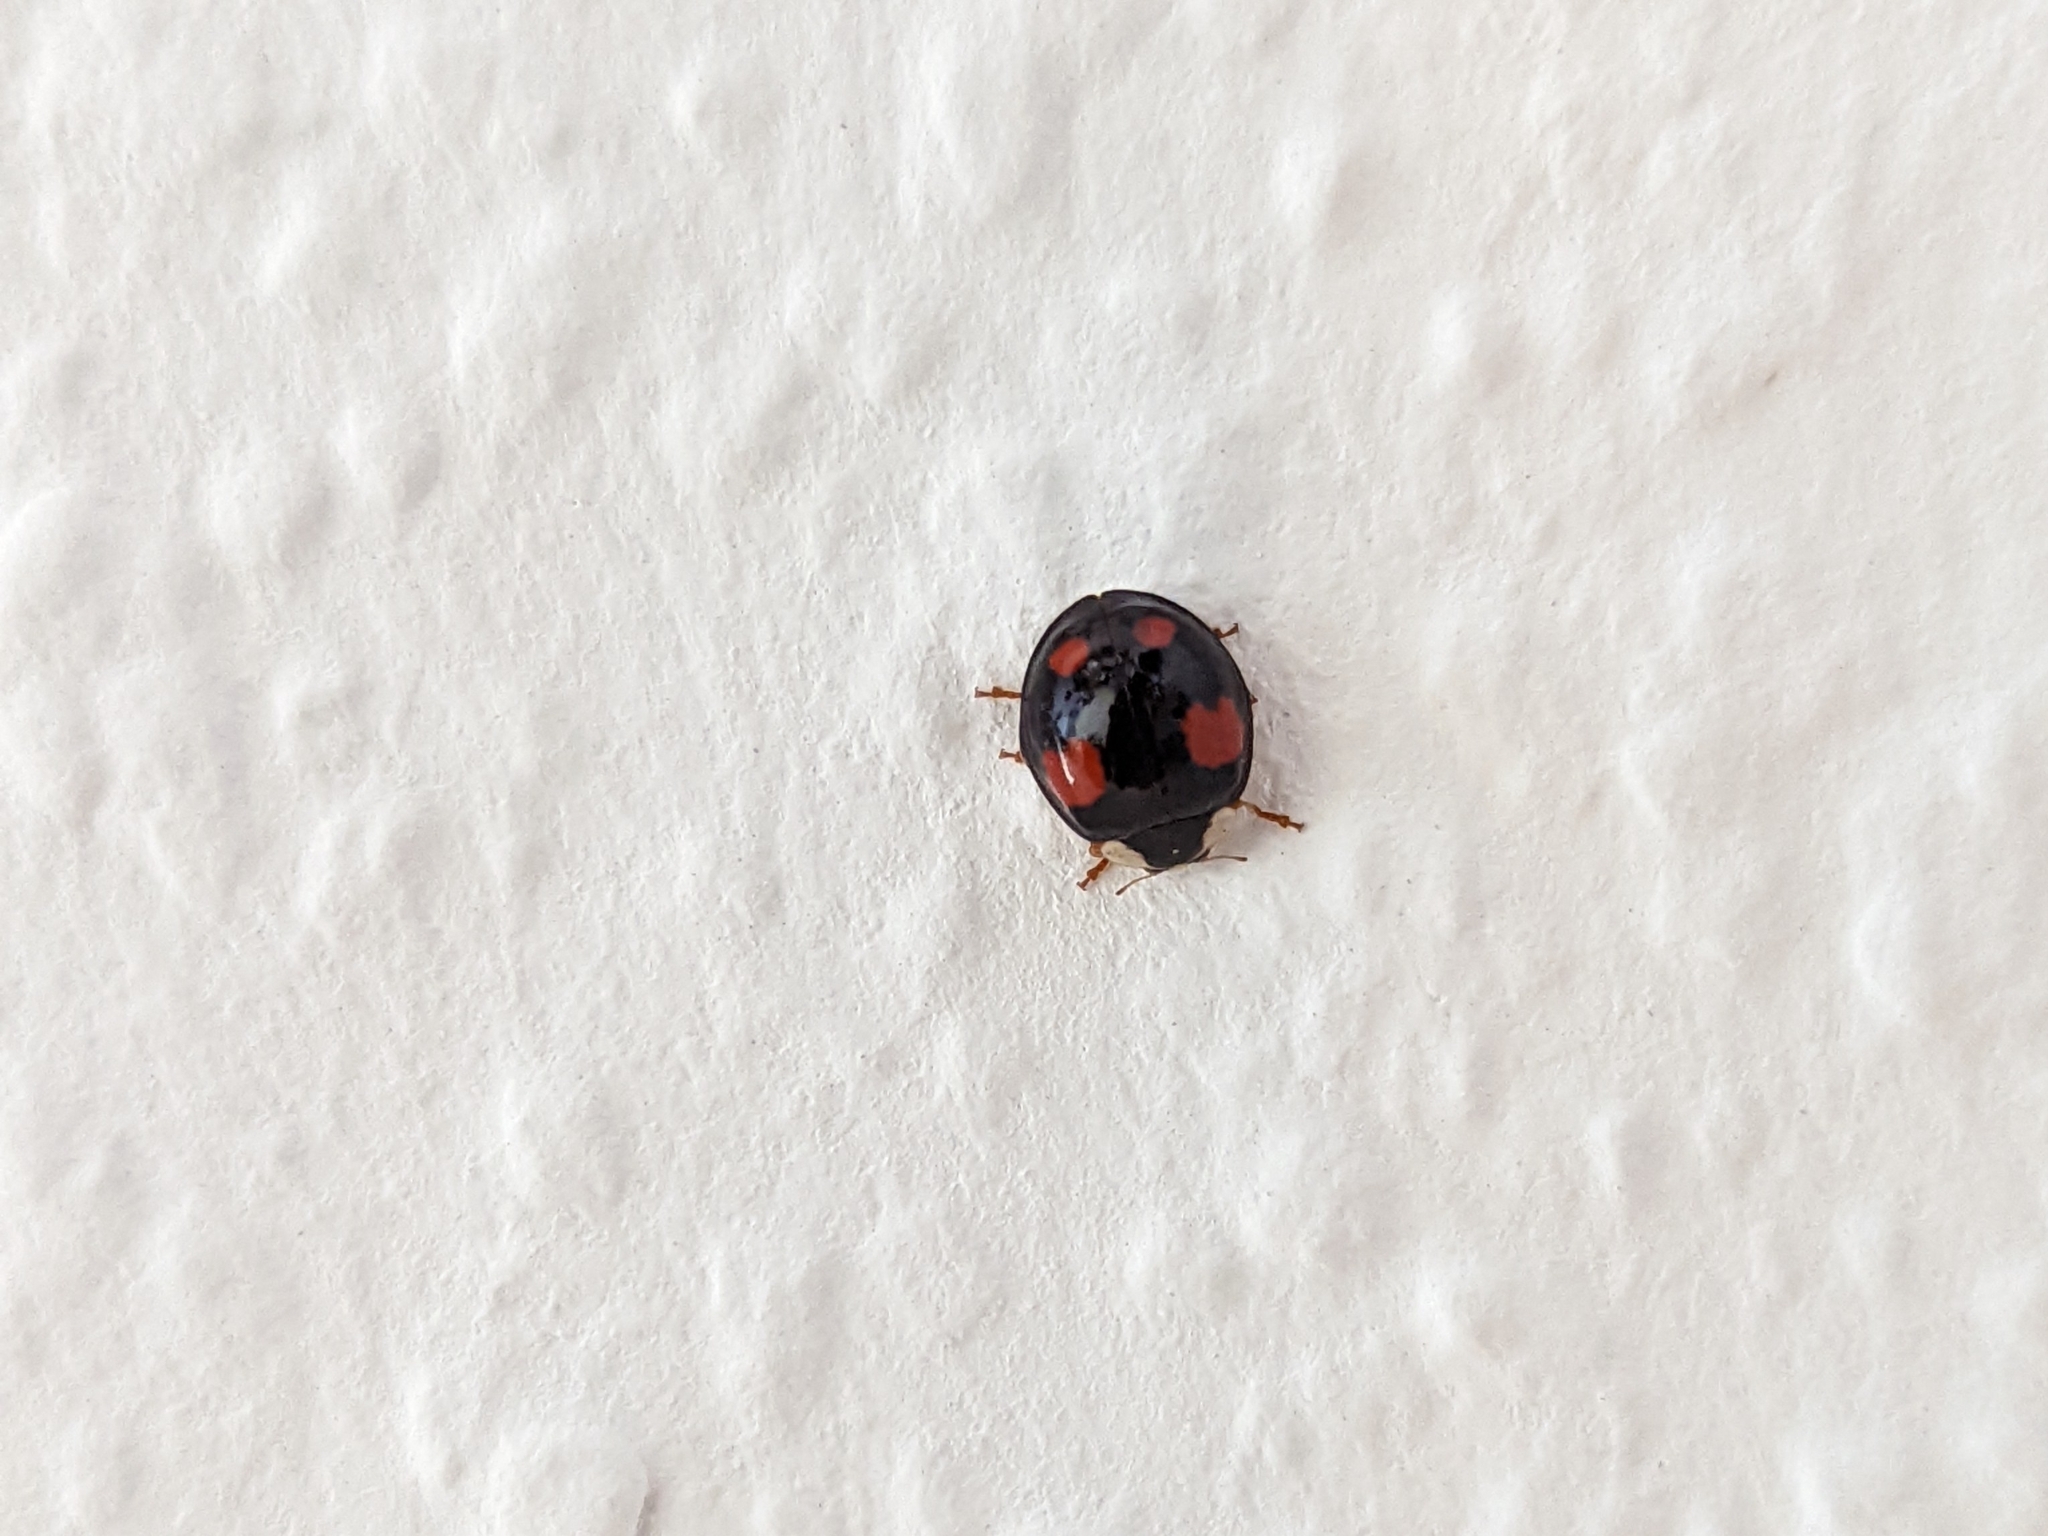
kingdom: Animalia
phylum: Arthropoda
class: Insecta
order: Coleoptera
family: Coccinellidae
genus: Harmonia
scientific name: Harmonia axyridis
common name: Harlequin ladybird
